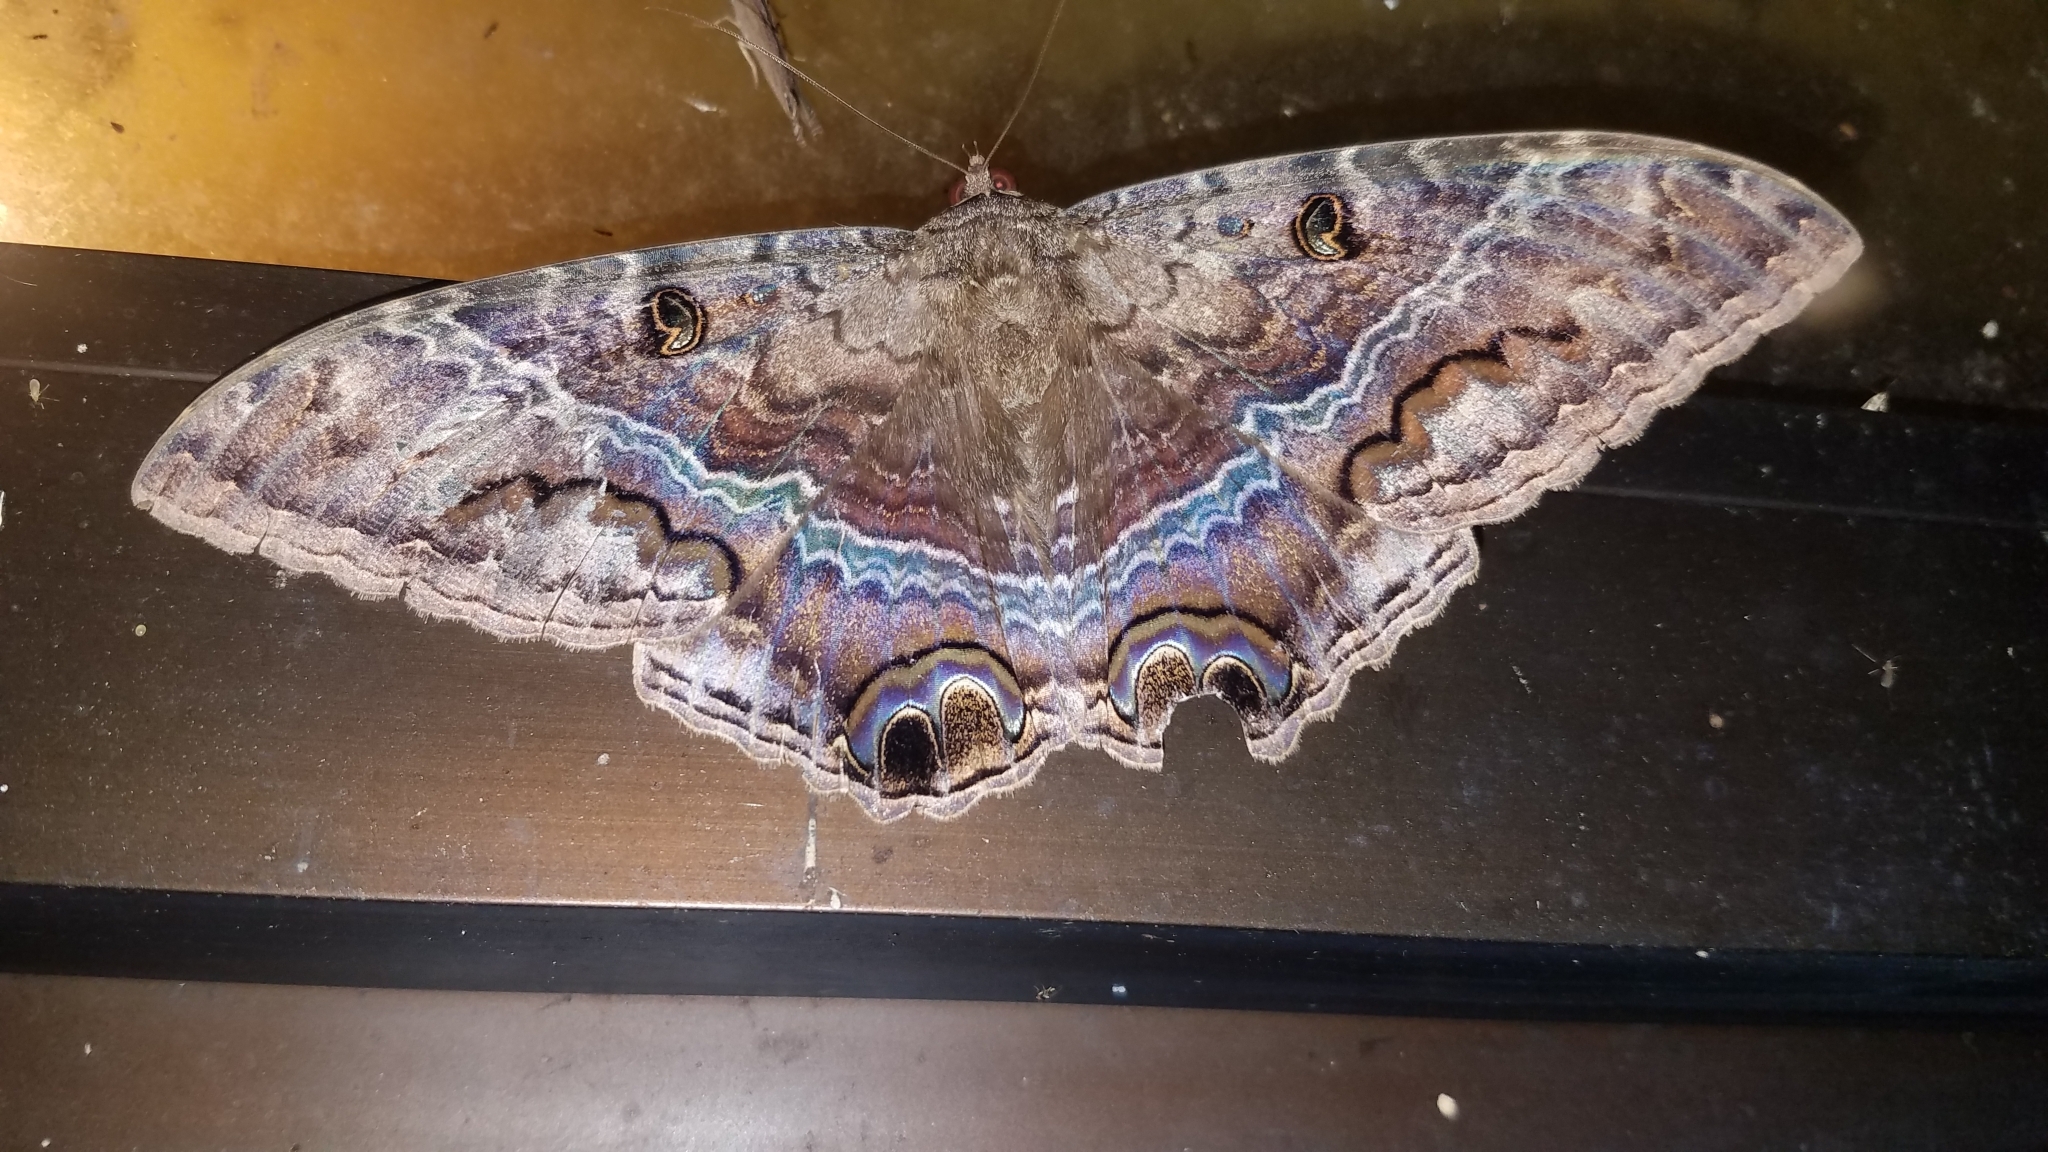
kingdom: Animalia
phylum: Arthropoda
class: Insecta
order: Lepidoptera
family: Erebidae
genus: Ascalapha
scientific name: Ascalapha odorata
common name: Black witch
